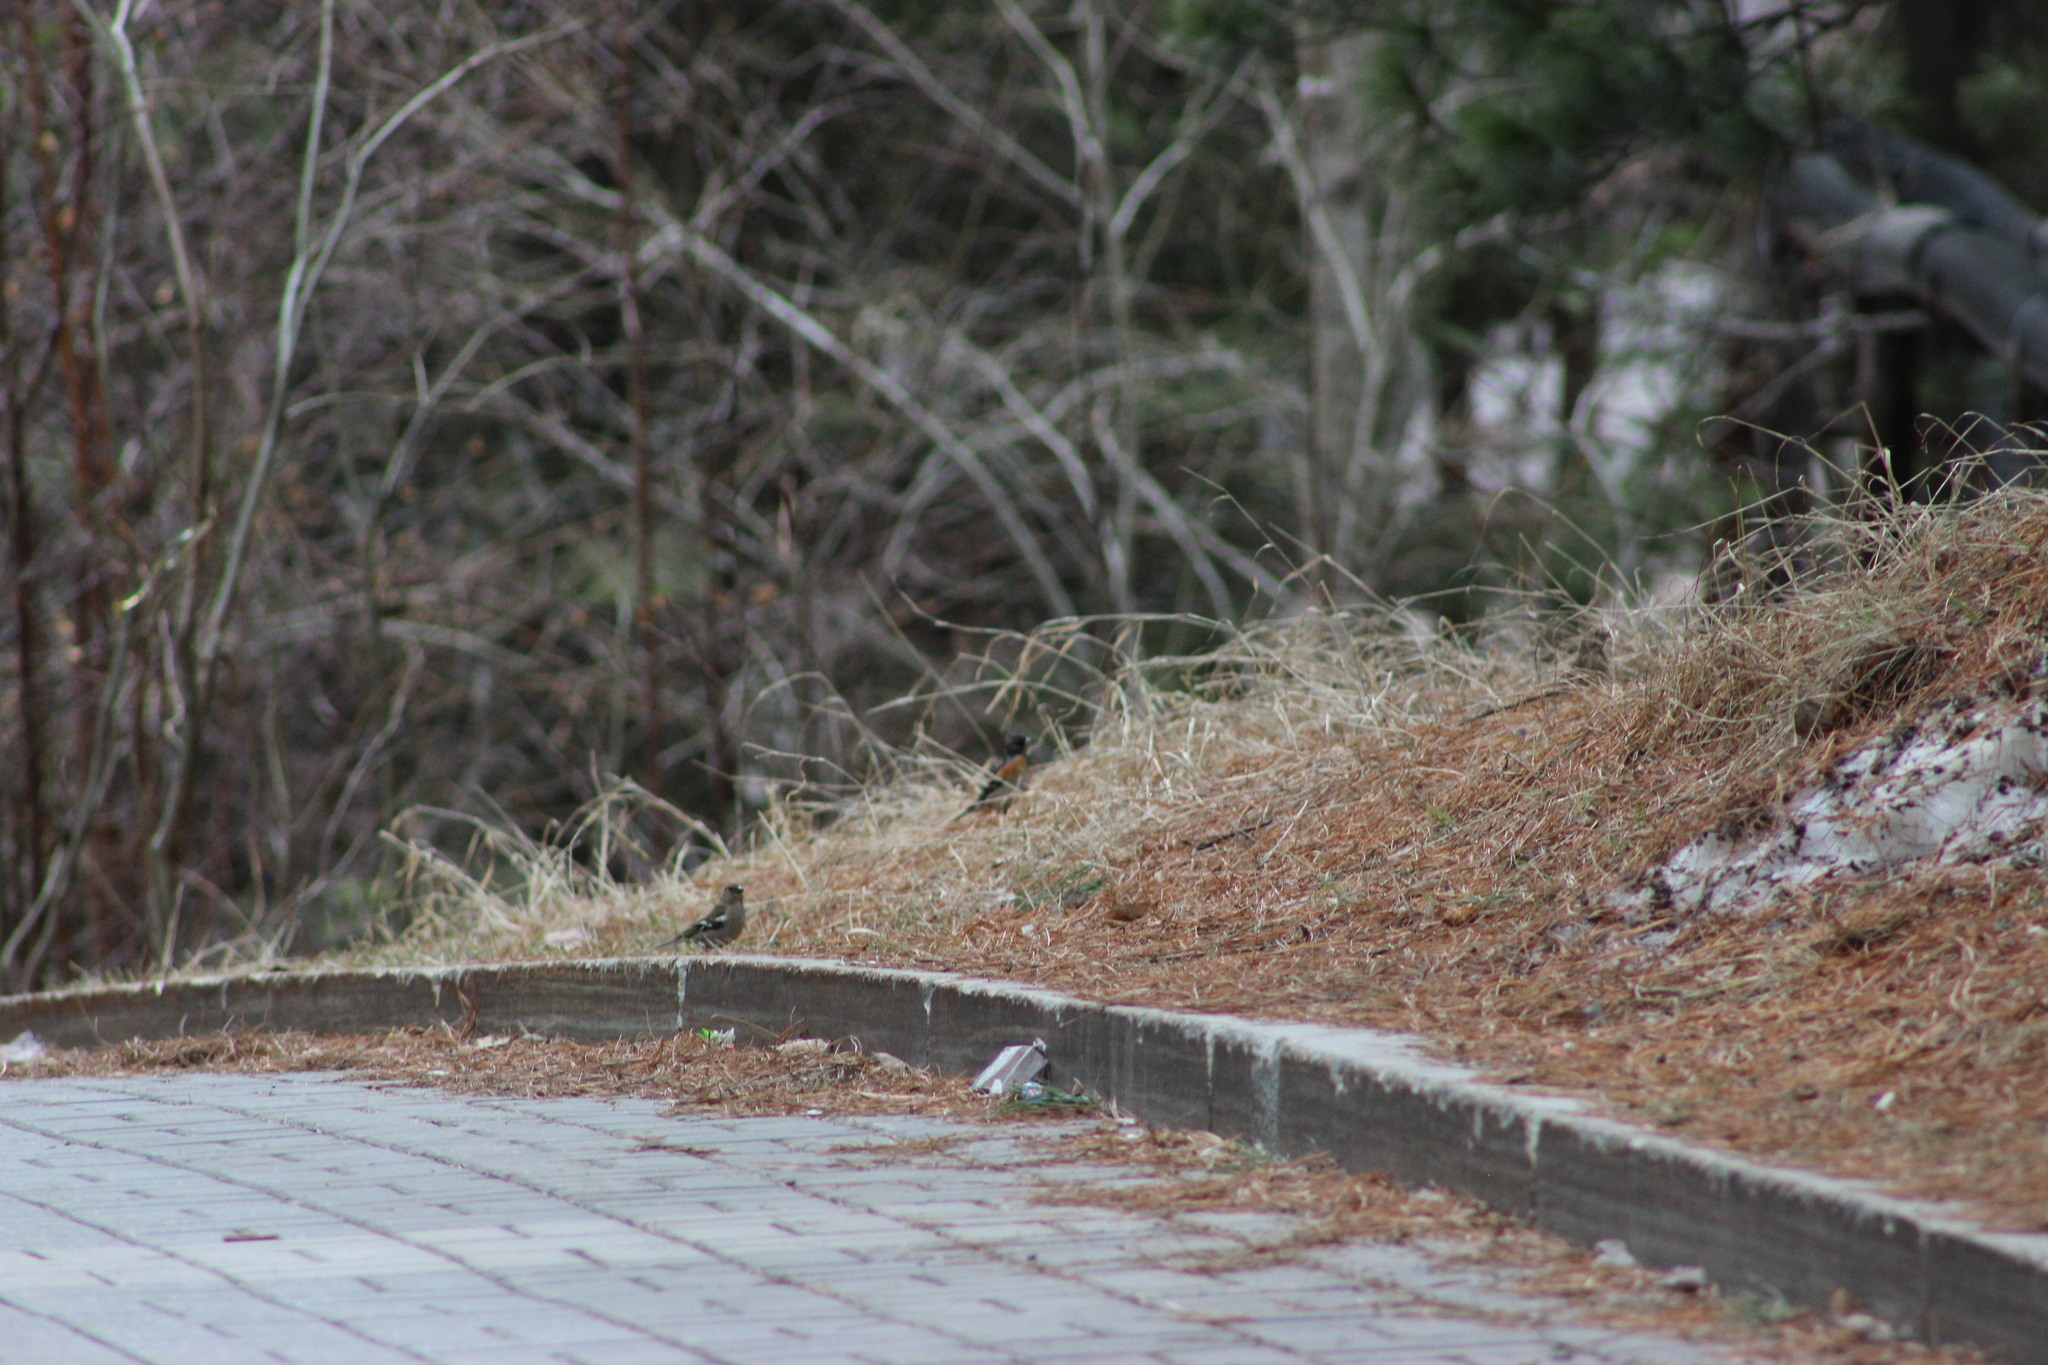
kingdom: Animalia
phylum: Chordata
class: Aves
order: Passeriformes
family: Fringillidae
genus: Fringilla
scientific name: Fringilla coelebs
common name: Common chaffinch
